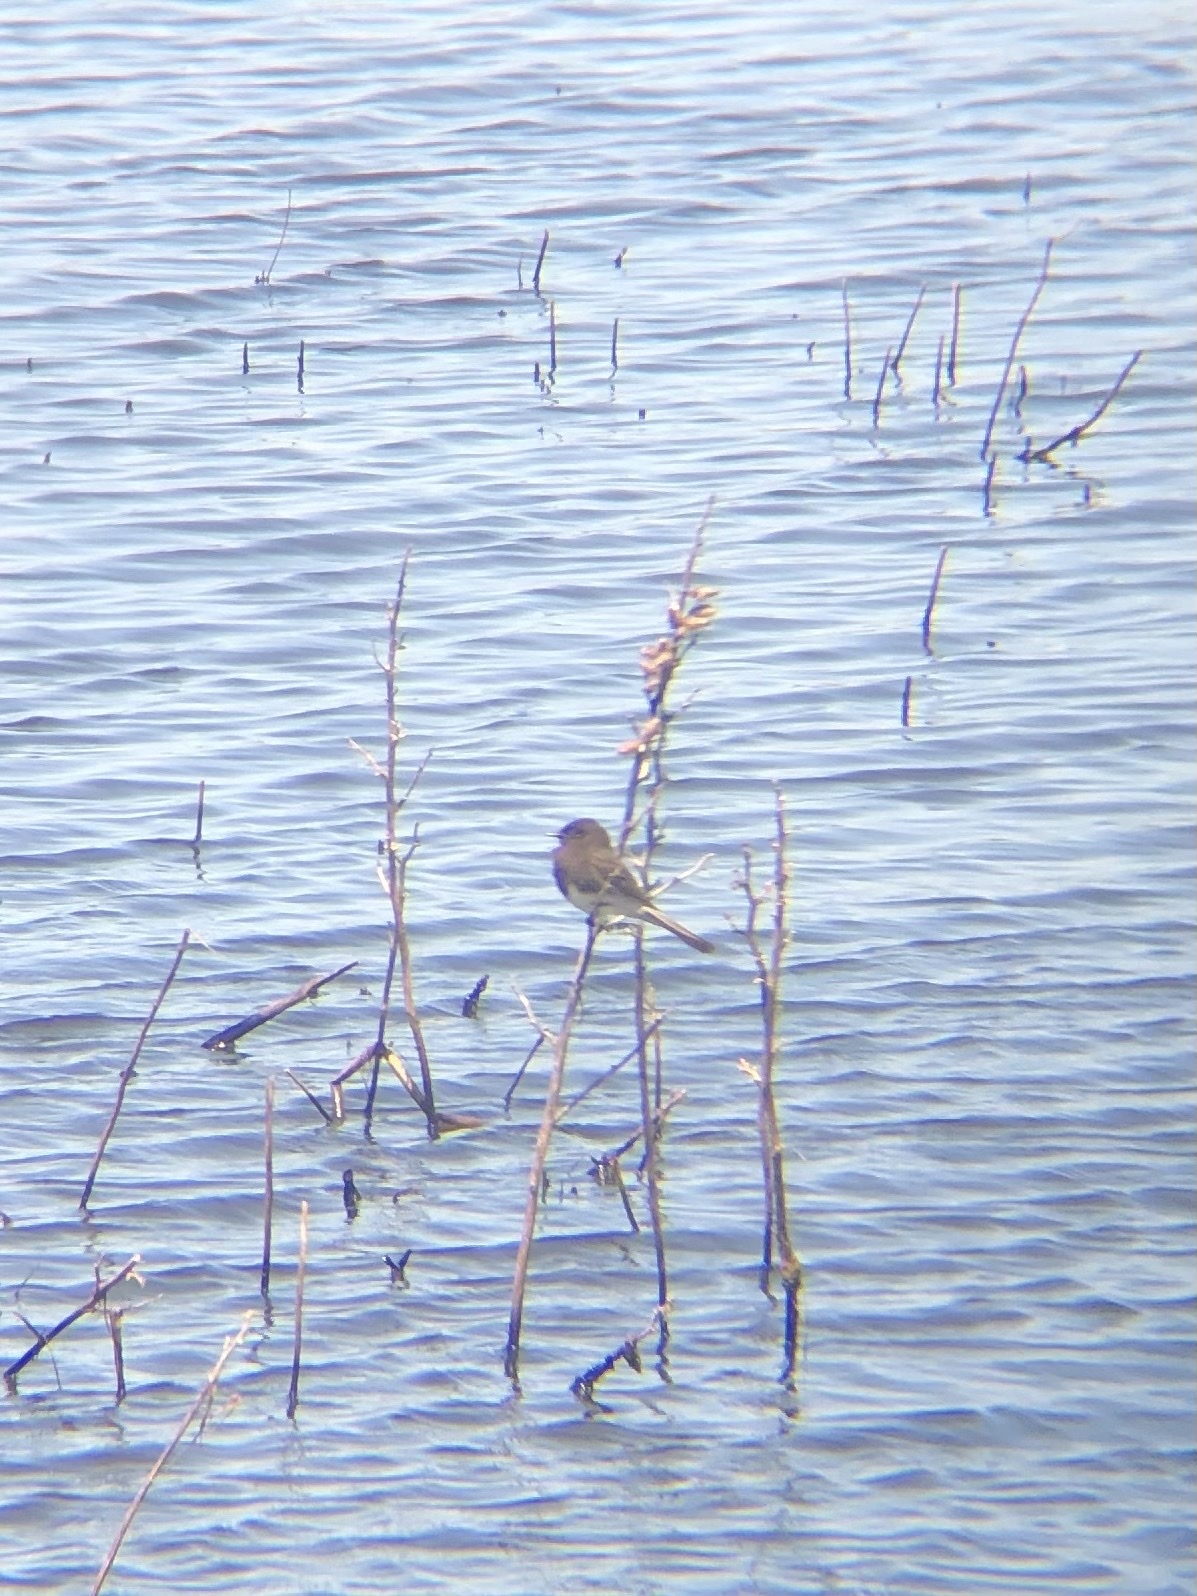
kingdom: Animalia
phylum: Chordata
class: Aves
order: Passeriformes
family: Tyrannidae
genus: Sayornis
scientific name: Sayornis nigricans
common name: Black phoebe
